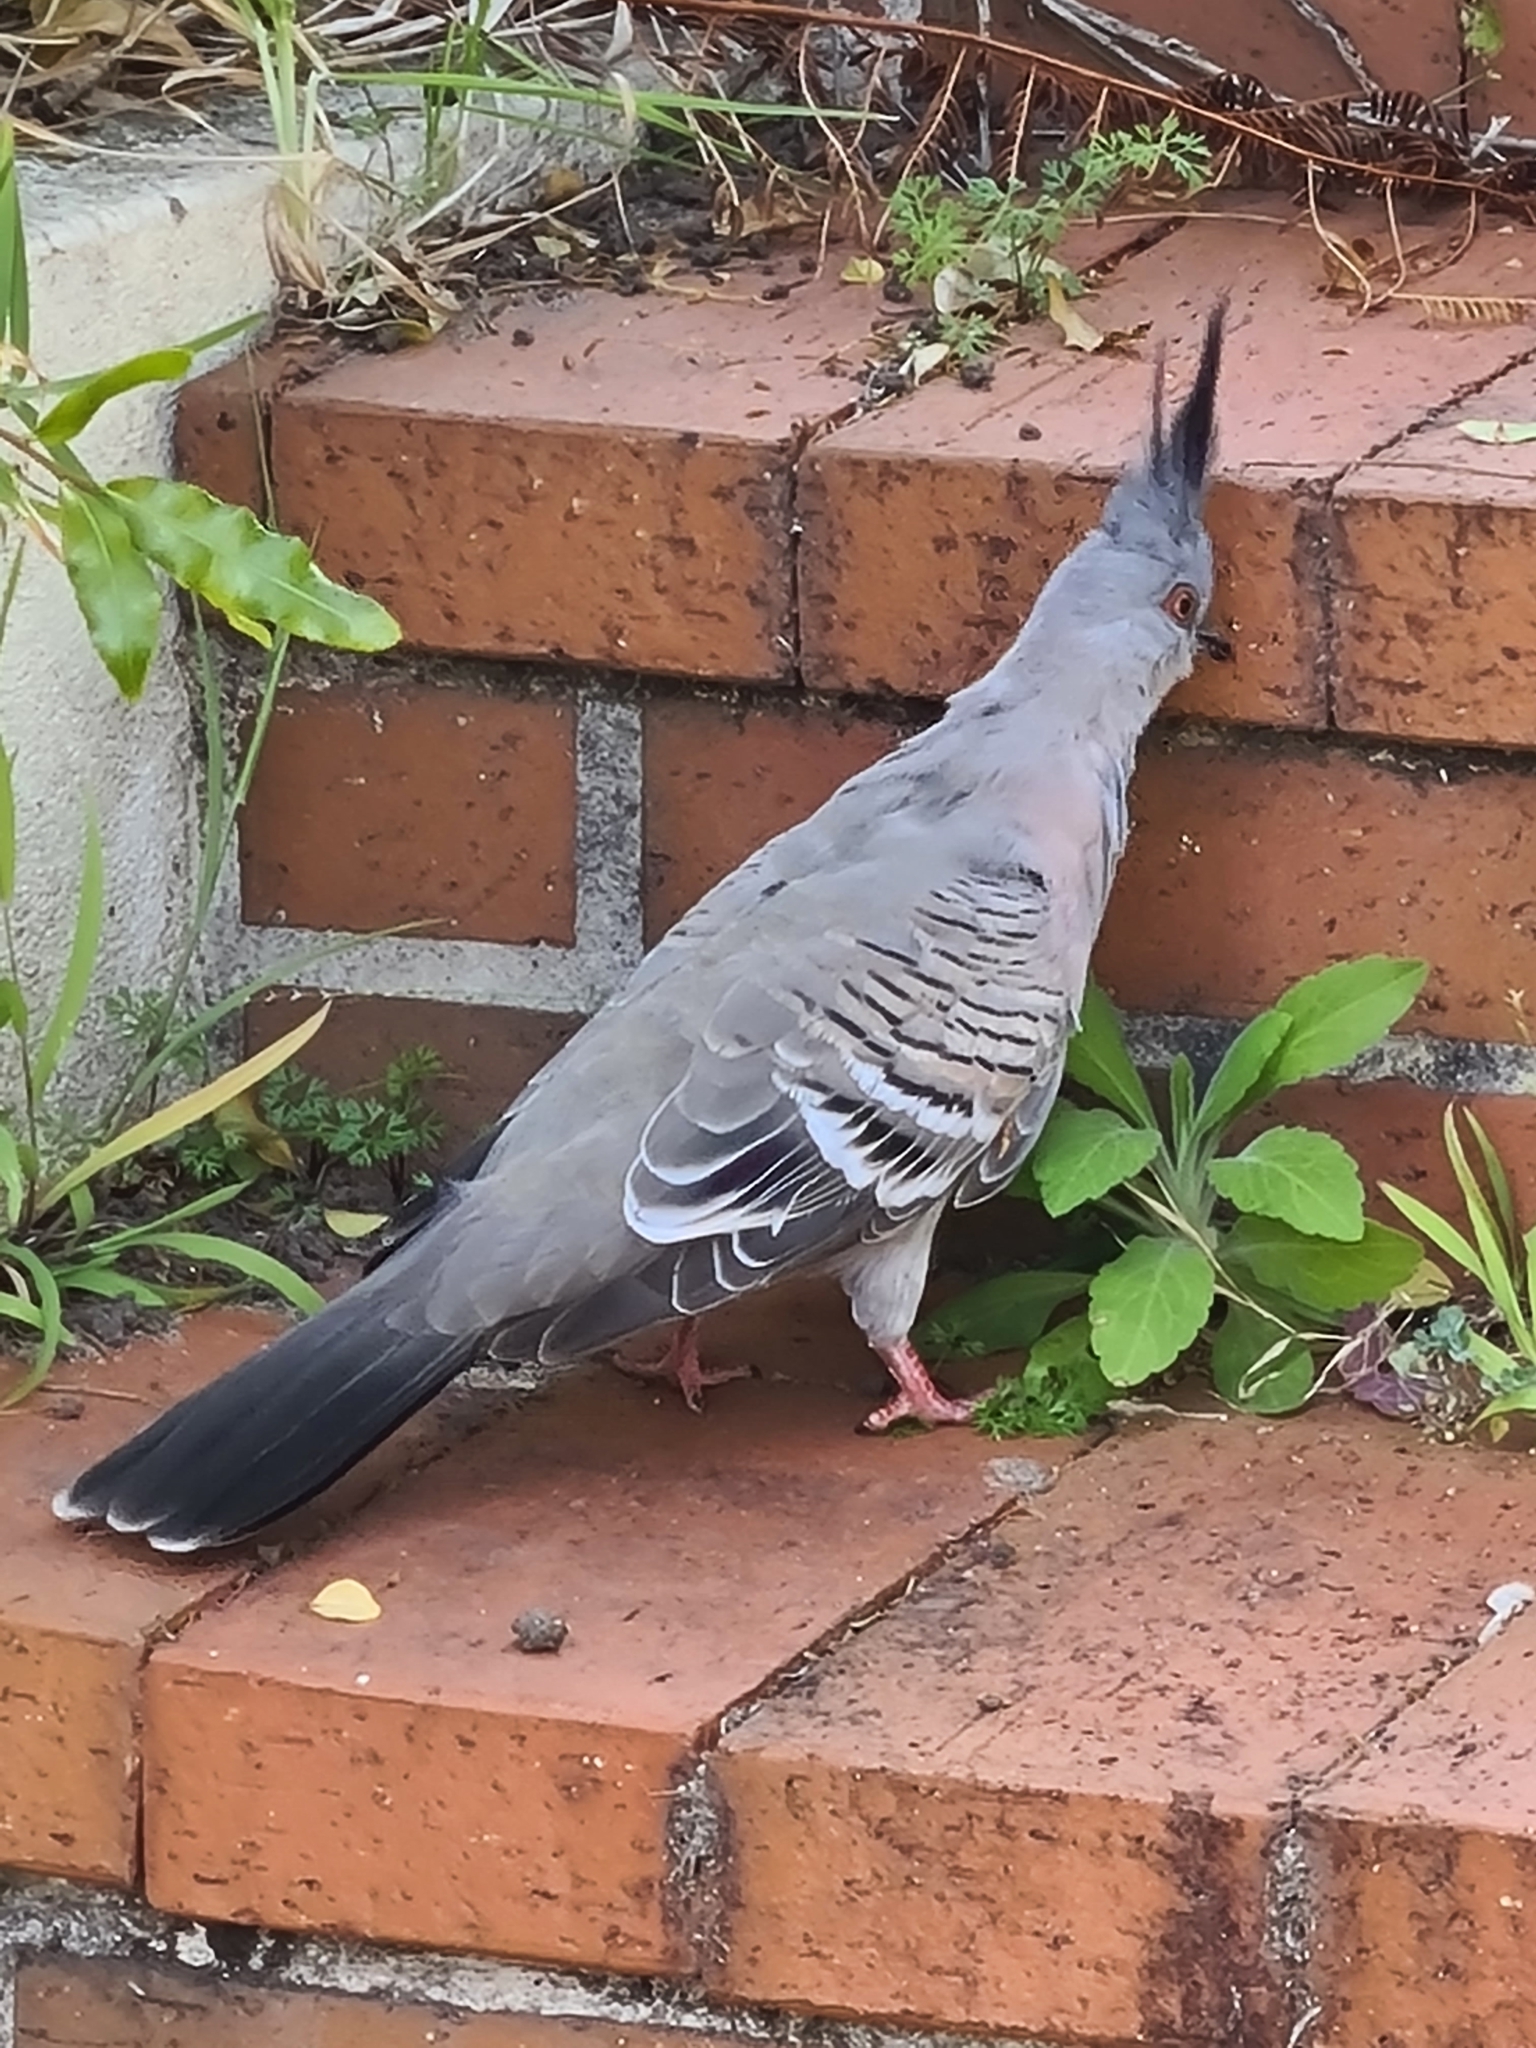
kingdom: Animalia
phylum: Chordata
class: Aves
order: Columbiformes
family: Columbidae
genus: Ocyphaps
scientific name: Ocyphaps lophotes
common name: Crested pigeon
